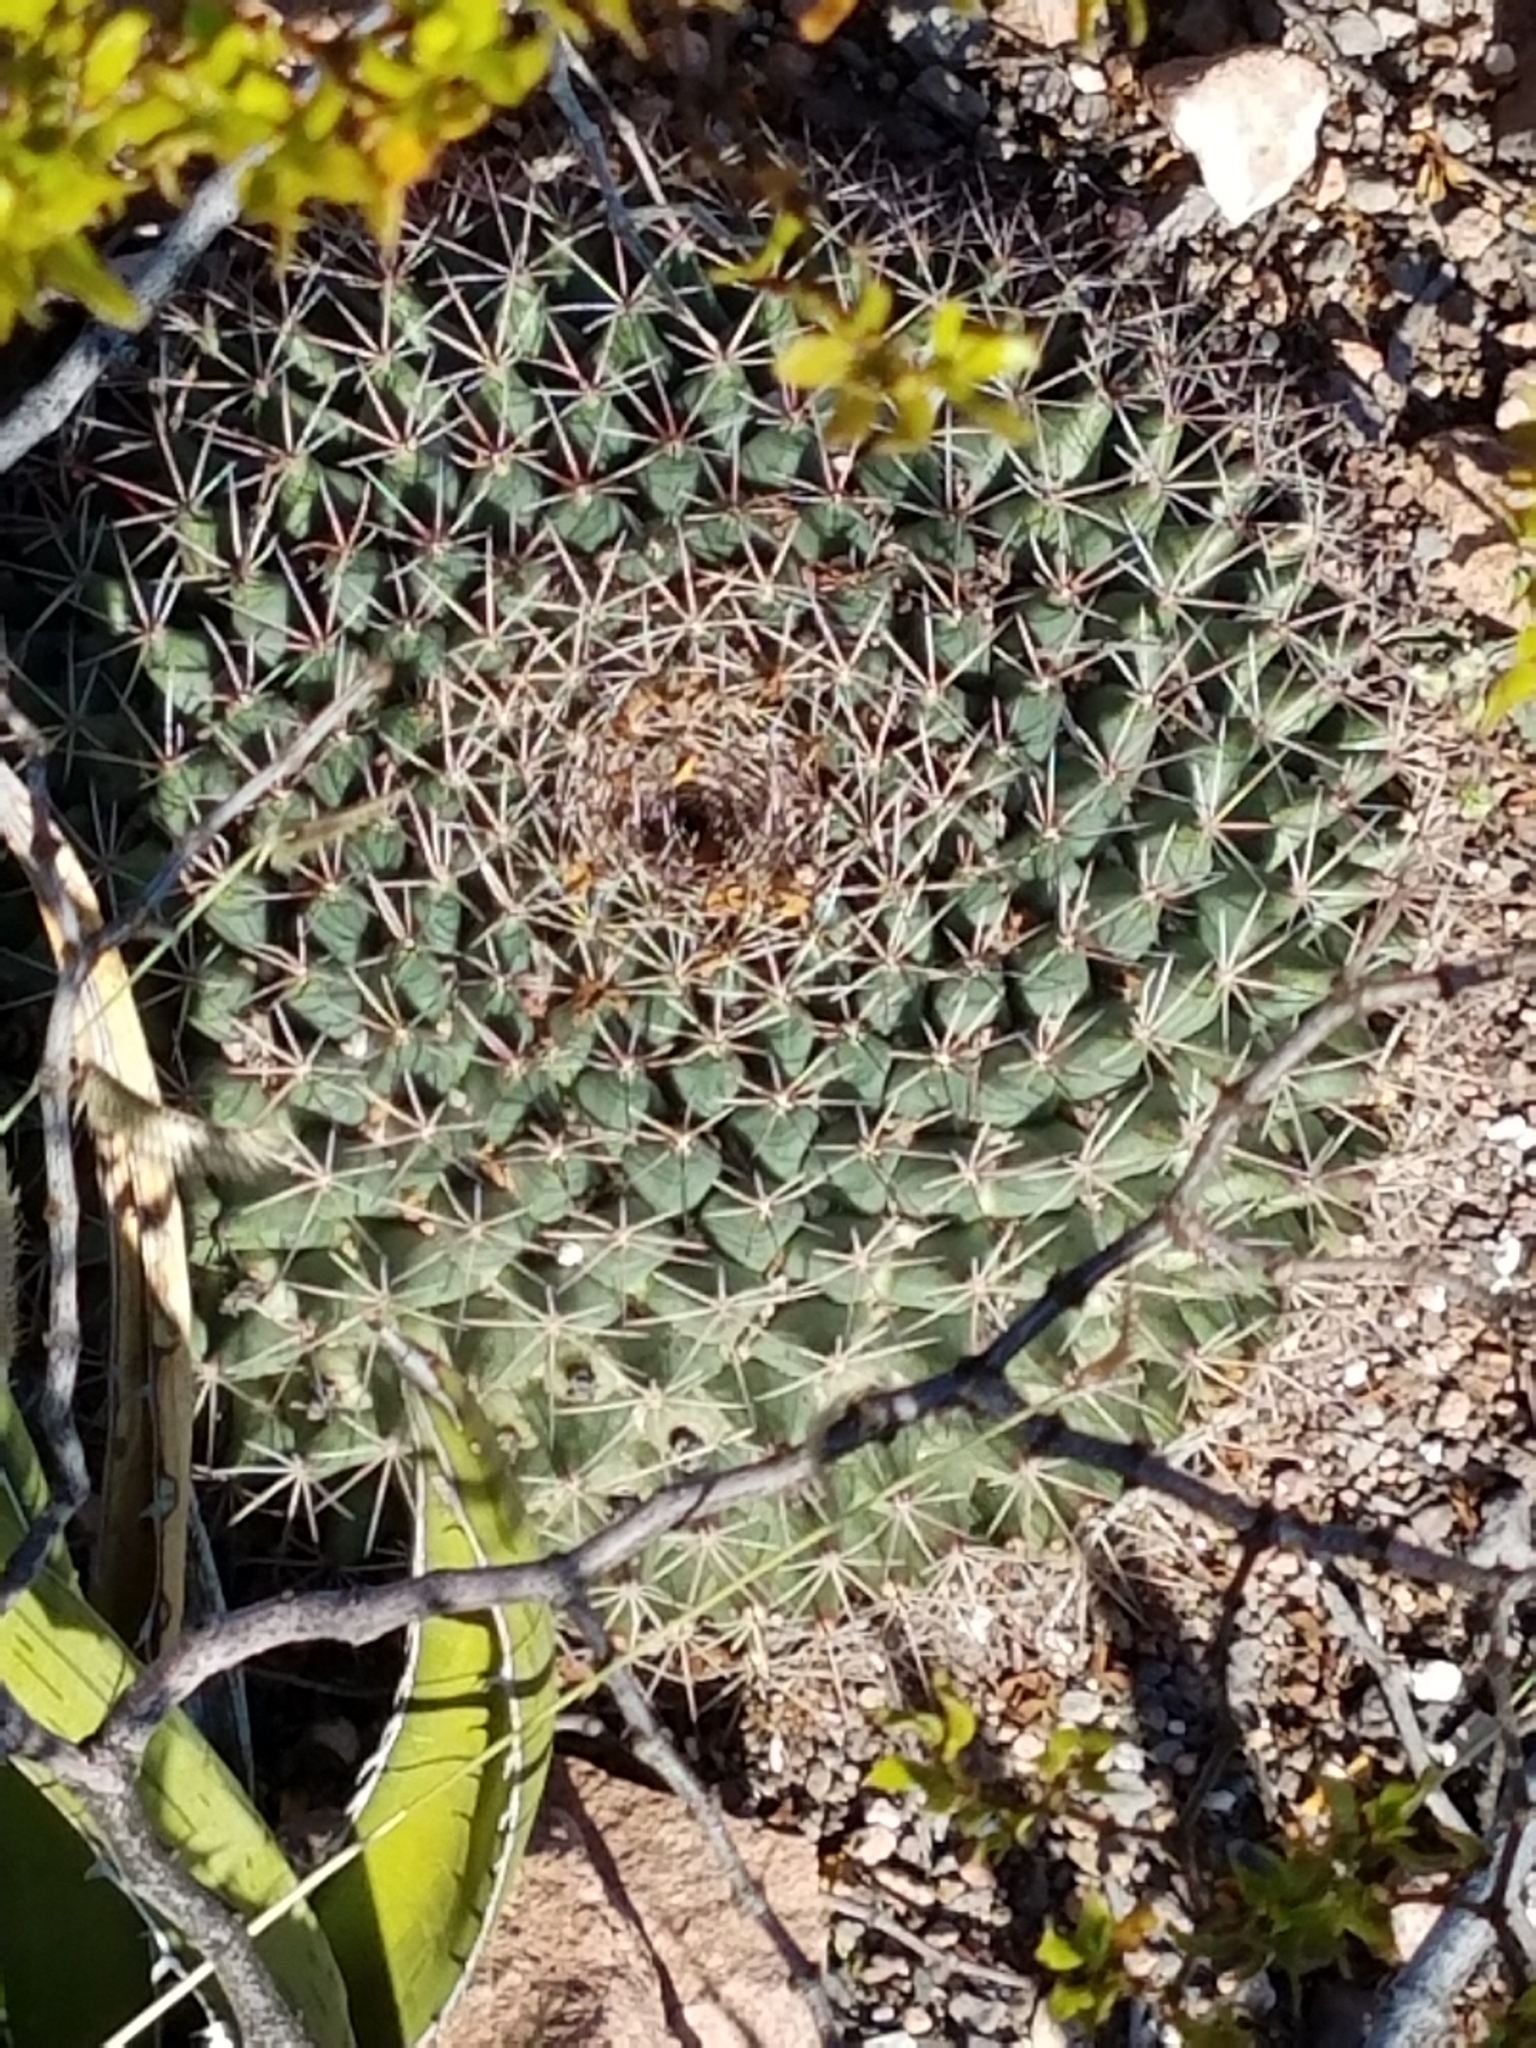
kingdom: Plantae
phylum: Tracheophyta
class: Magnoliopsida
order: Caryophyllales
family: Cactaceae
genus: Mammillaria
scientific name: Mammillaria heyderi
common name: Little nipple cactus
